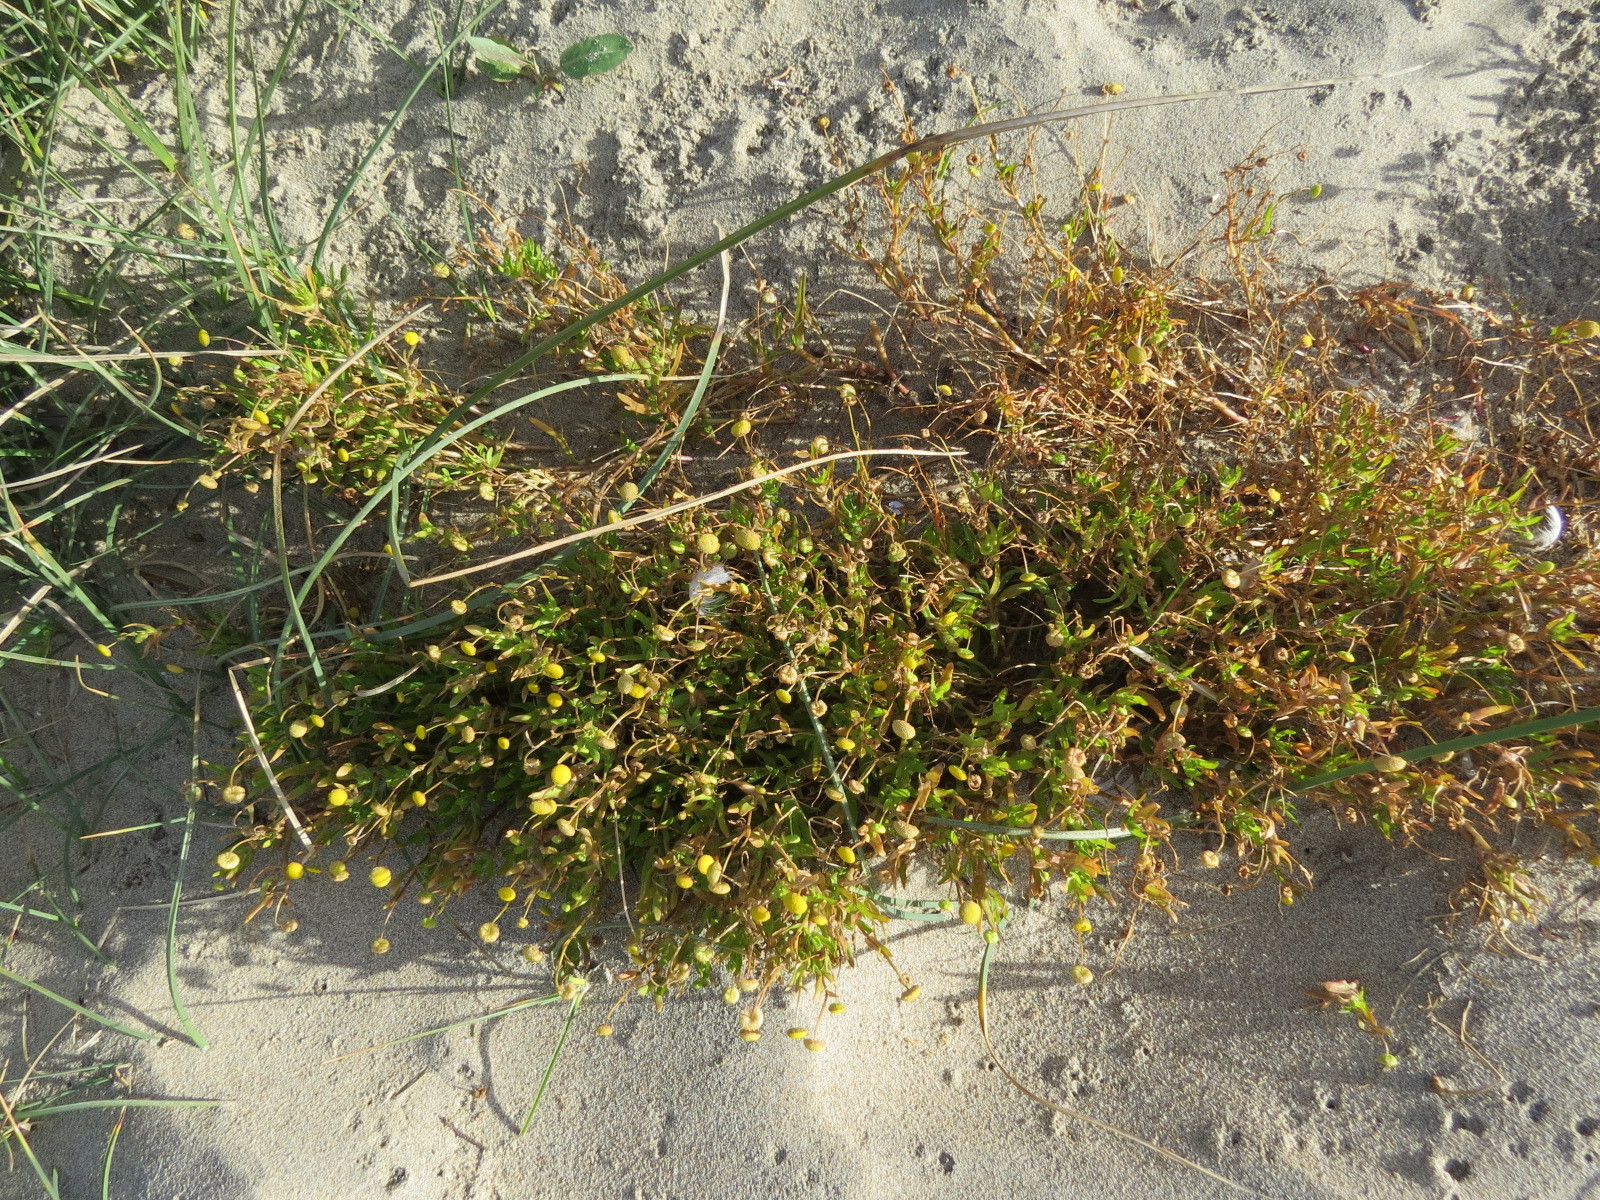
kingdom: Plantae
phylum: Tracheophyta
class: Magnoliopsida
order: Asterales
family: Asteraceae
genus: Cotula
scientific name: Cotula coronopifolia
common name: Buttonweed
